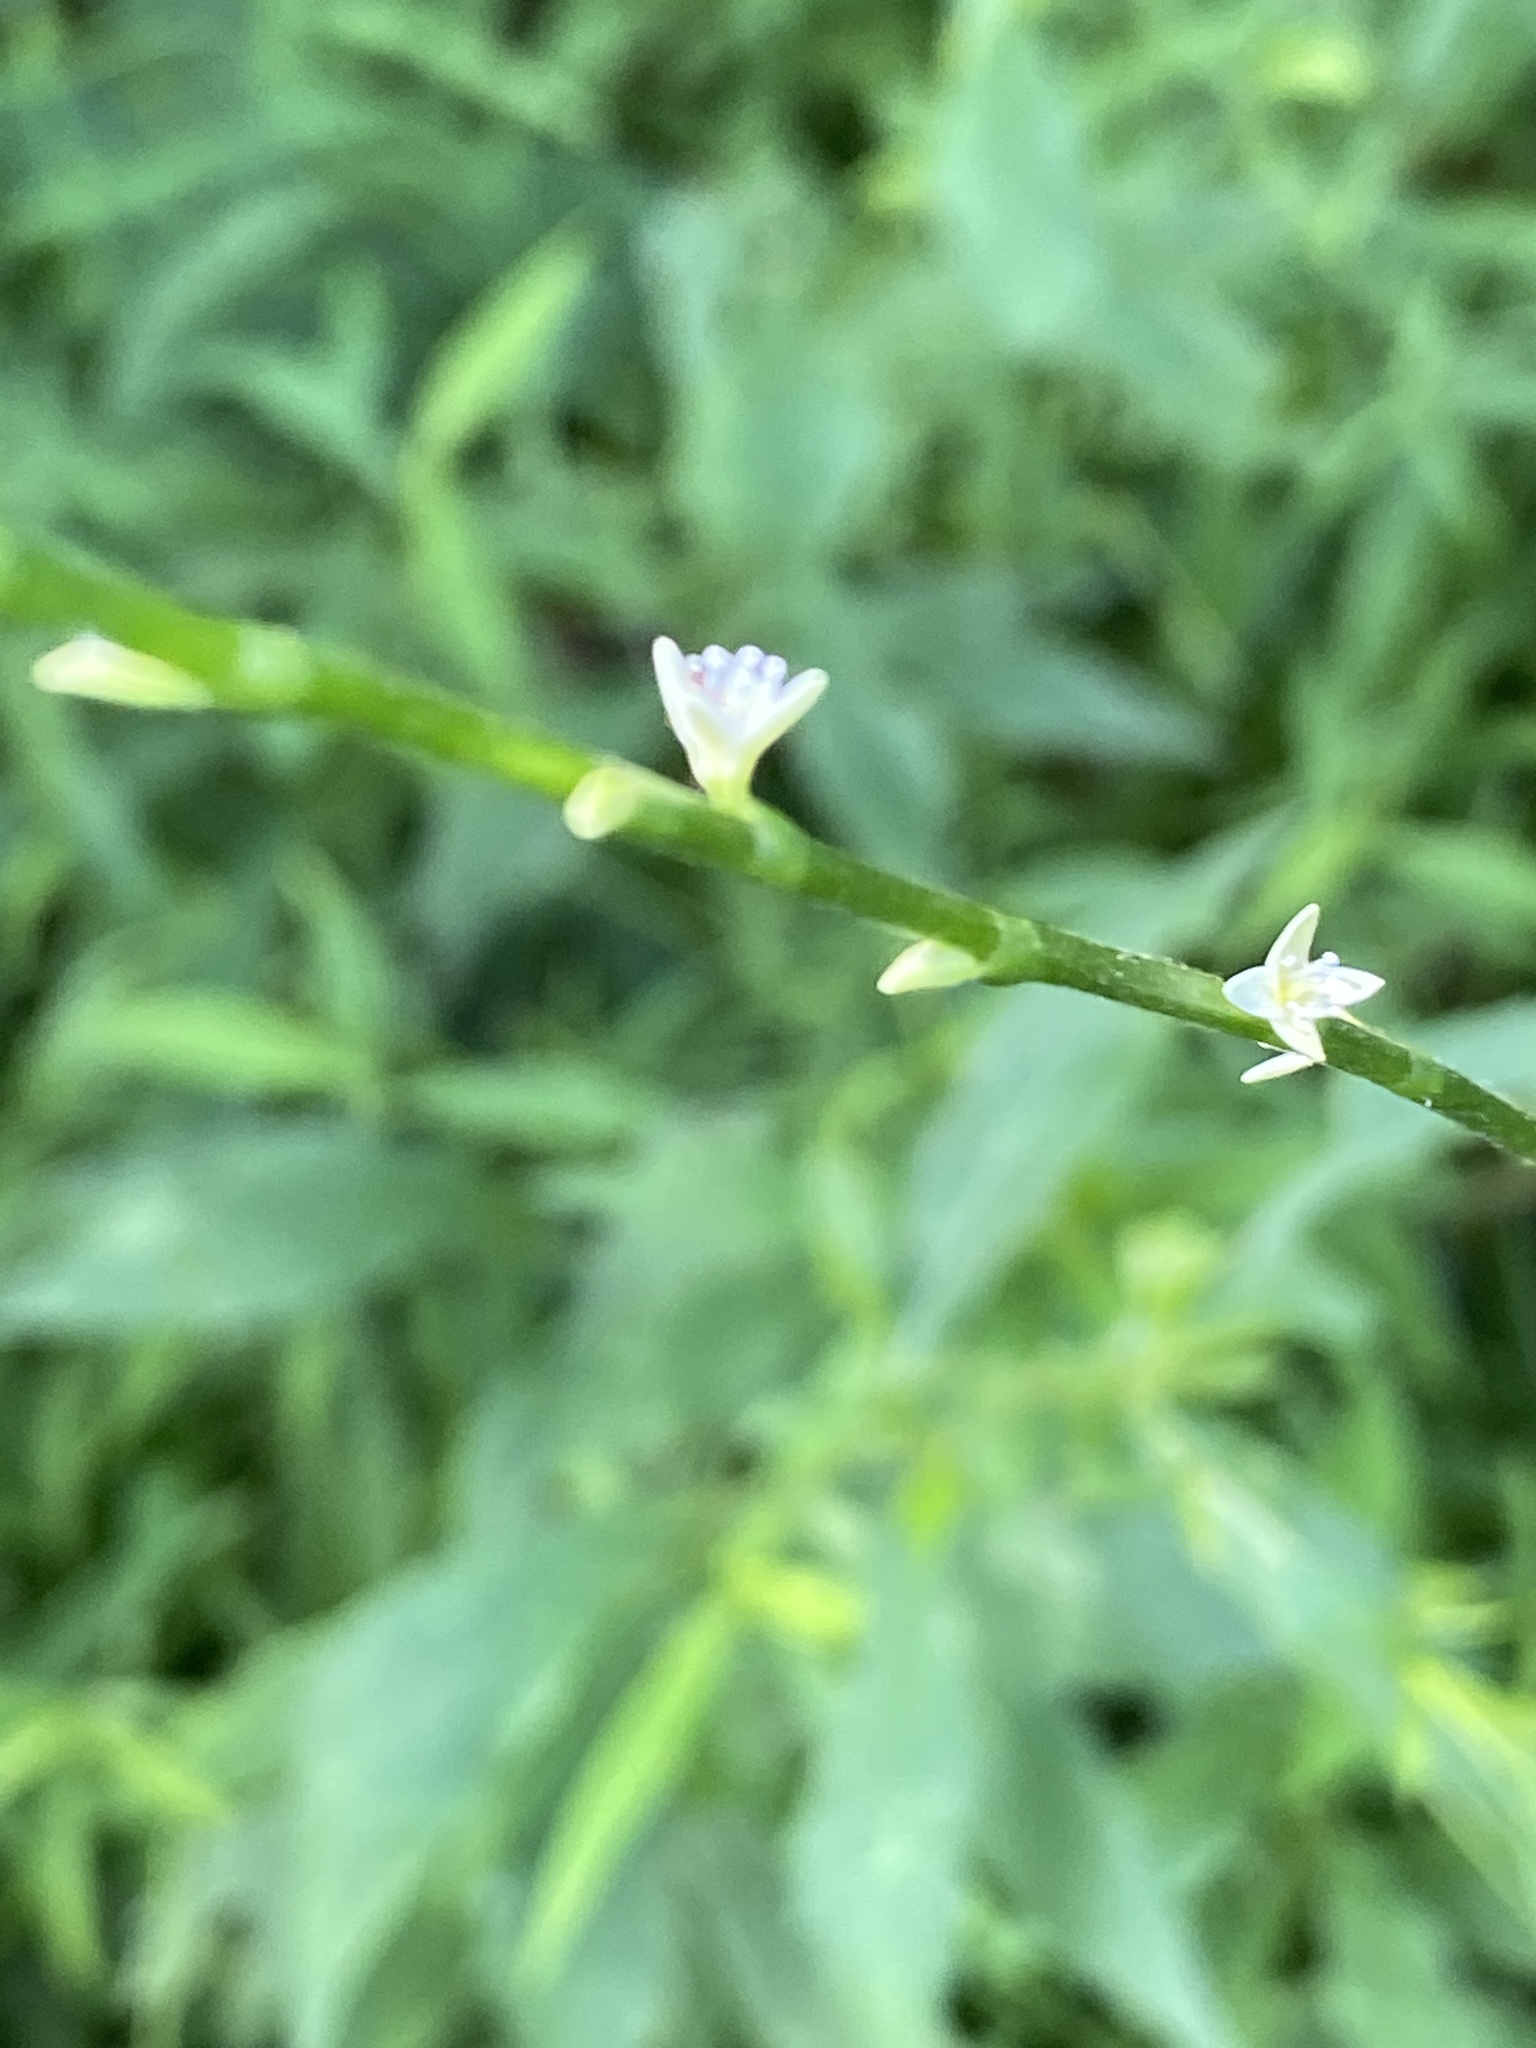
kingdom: Plantae
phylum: Tracheophyta
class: Magnoliopsida
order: Caryophyllales
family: Polygonaceae
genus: Persicaria
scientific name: Persicaria virginiana
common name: Jumpseed
